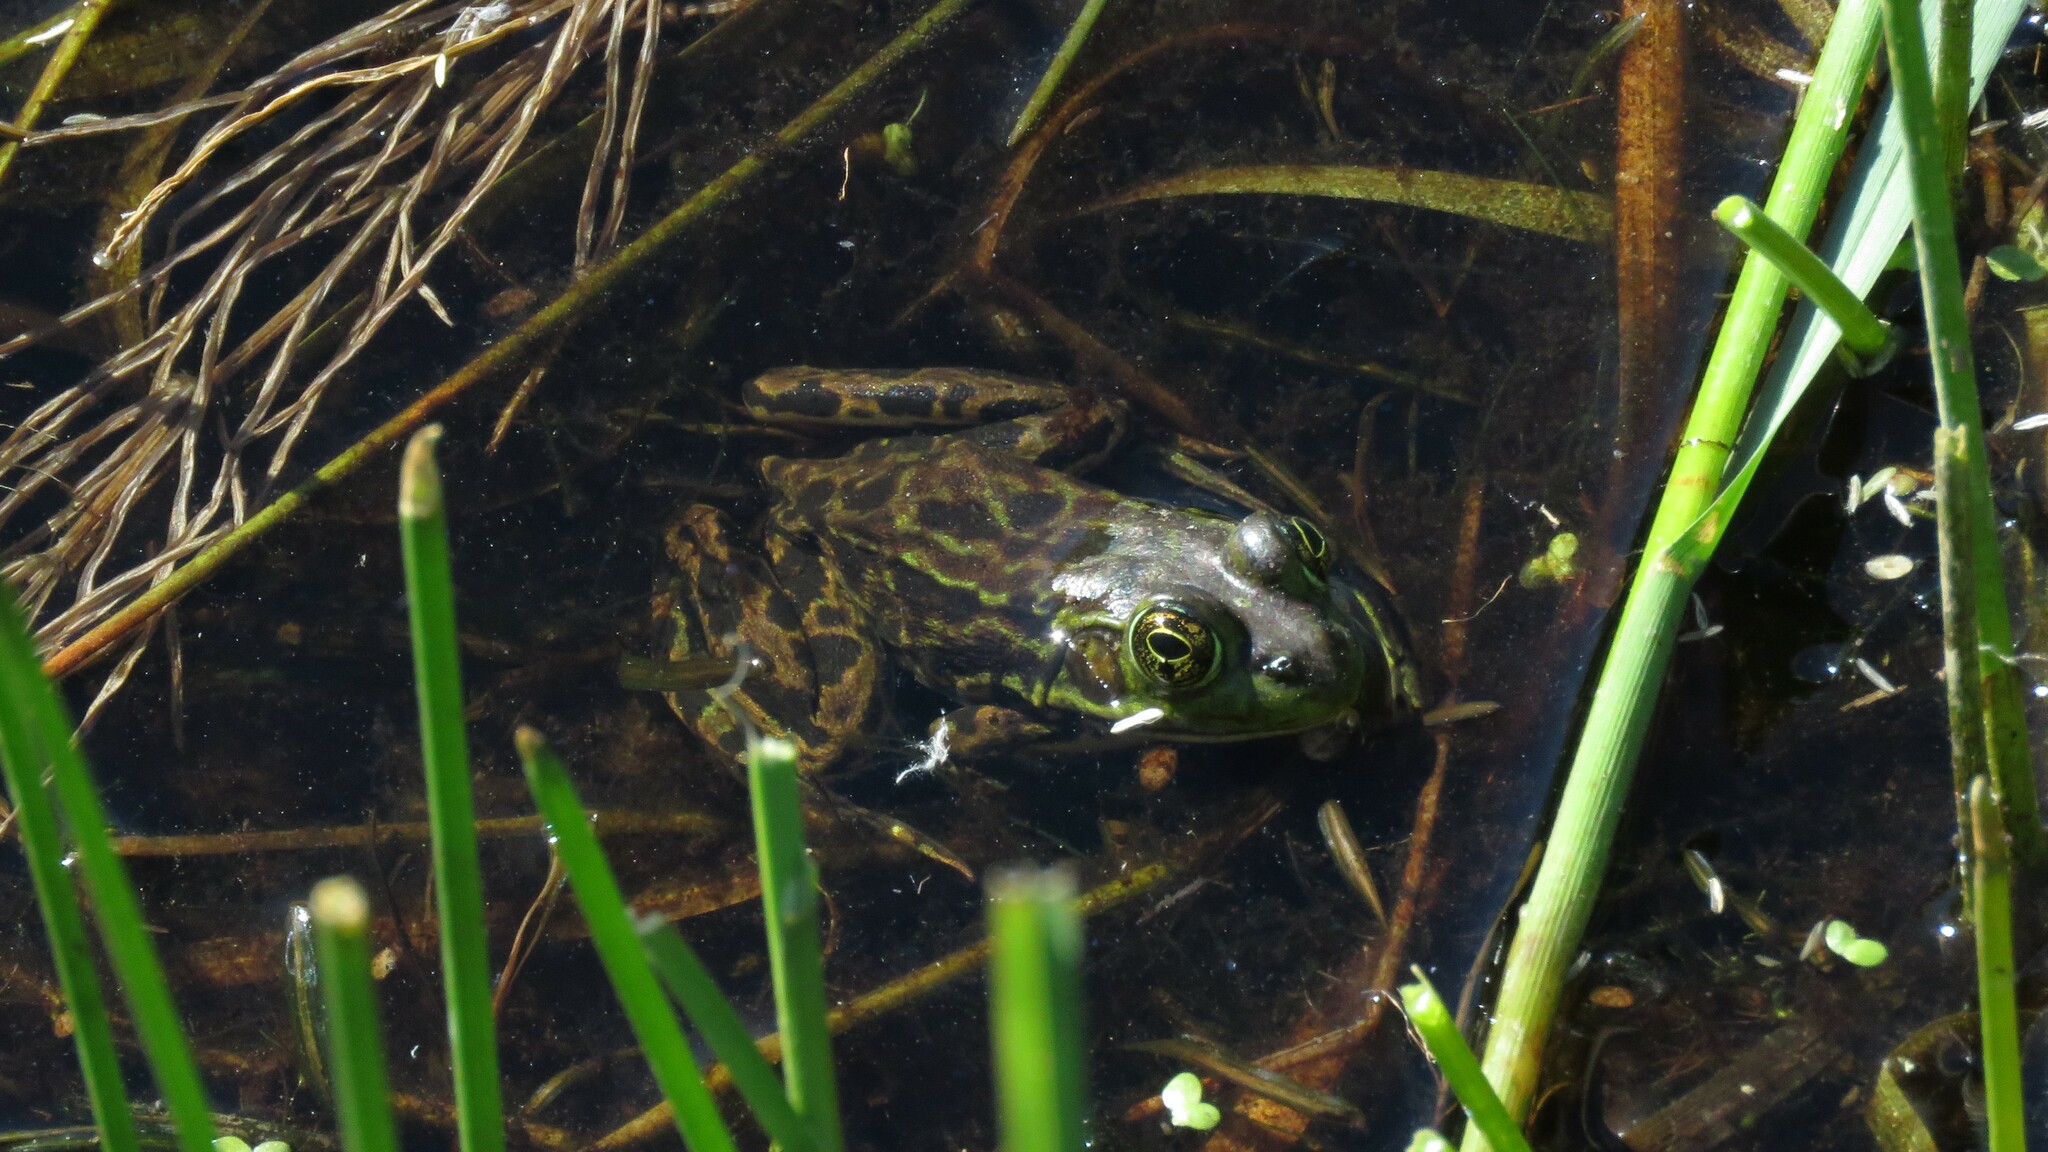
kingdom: Animalia
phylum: Chordata
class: Amphibia
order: Anura
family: Ranidae
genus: Lithobates
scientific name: Lithobates septentrionalis
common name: Mink frog
